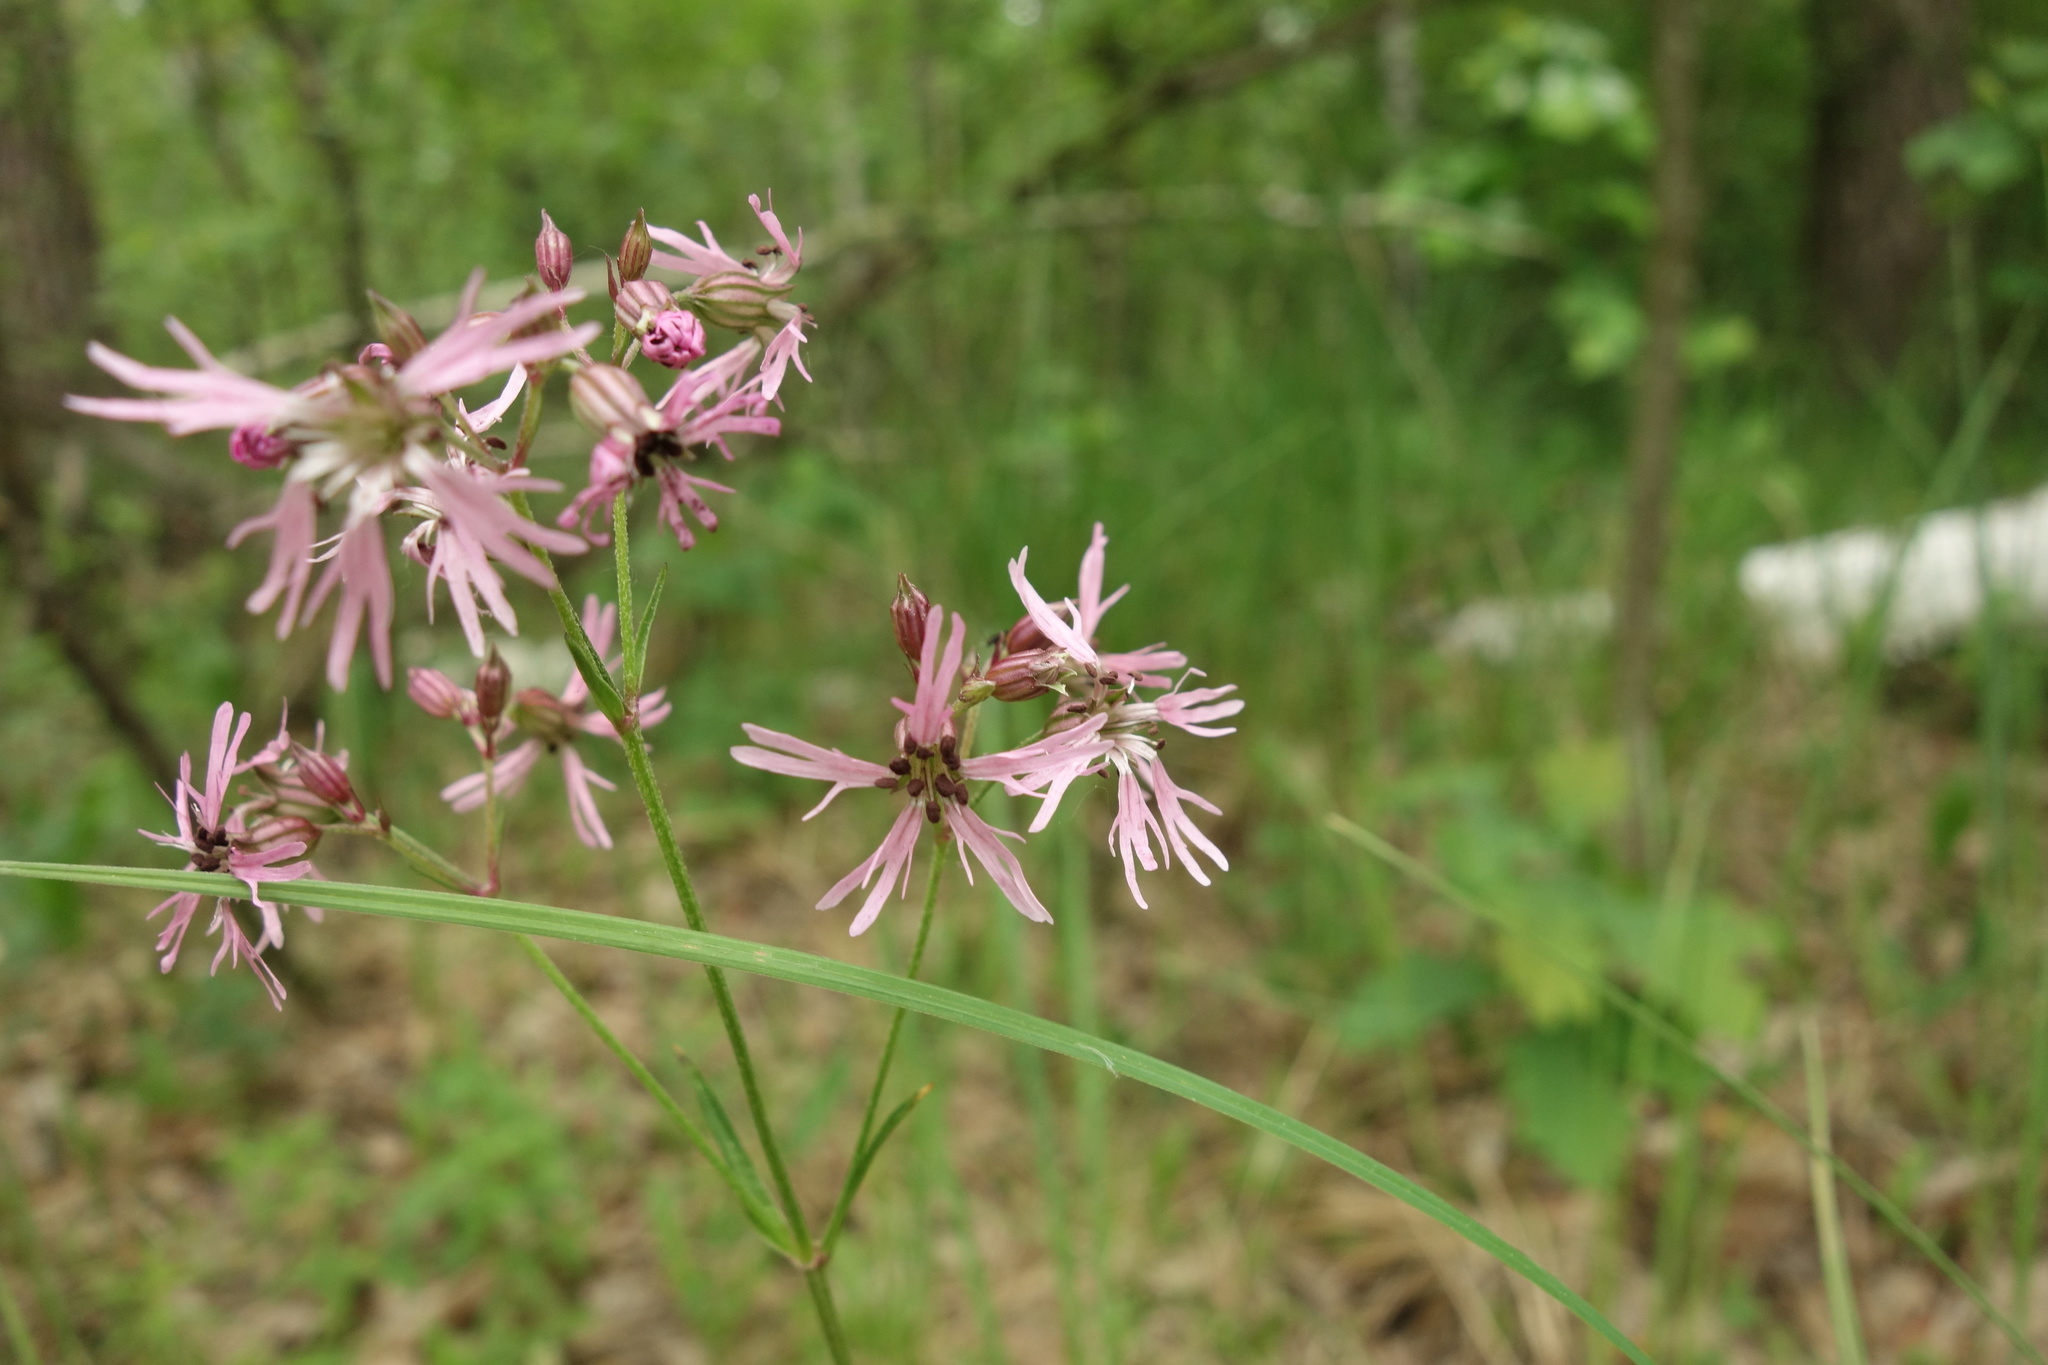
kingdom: Plantae
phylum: Tracheophyta
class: Magnoliopsida
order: Caryophyllales
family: Caryophyllaceae
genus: Silene
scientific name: Silene flos-cuculi
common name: Ragged-robin
